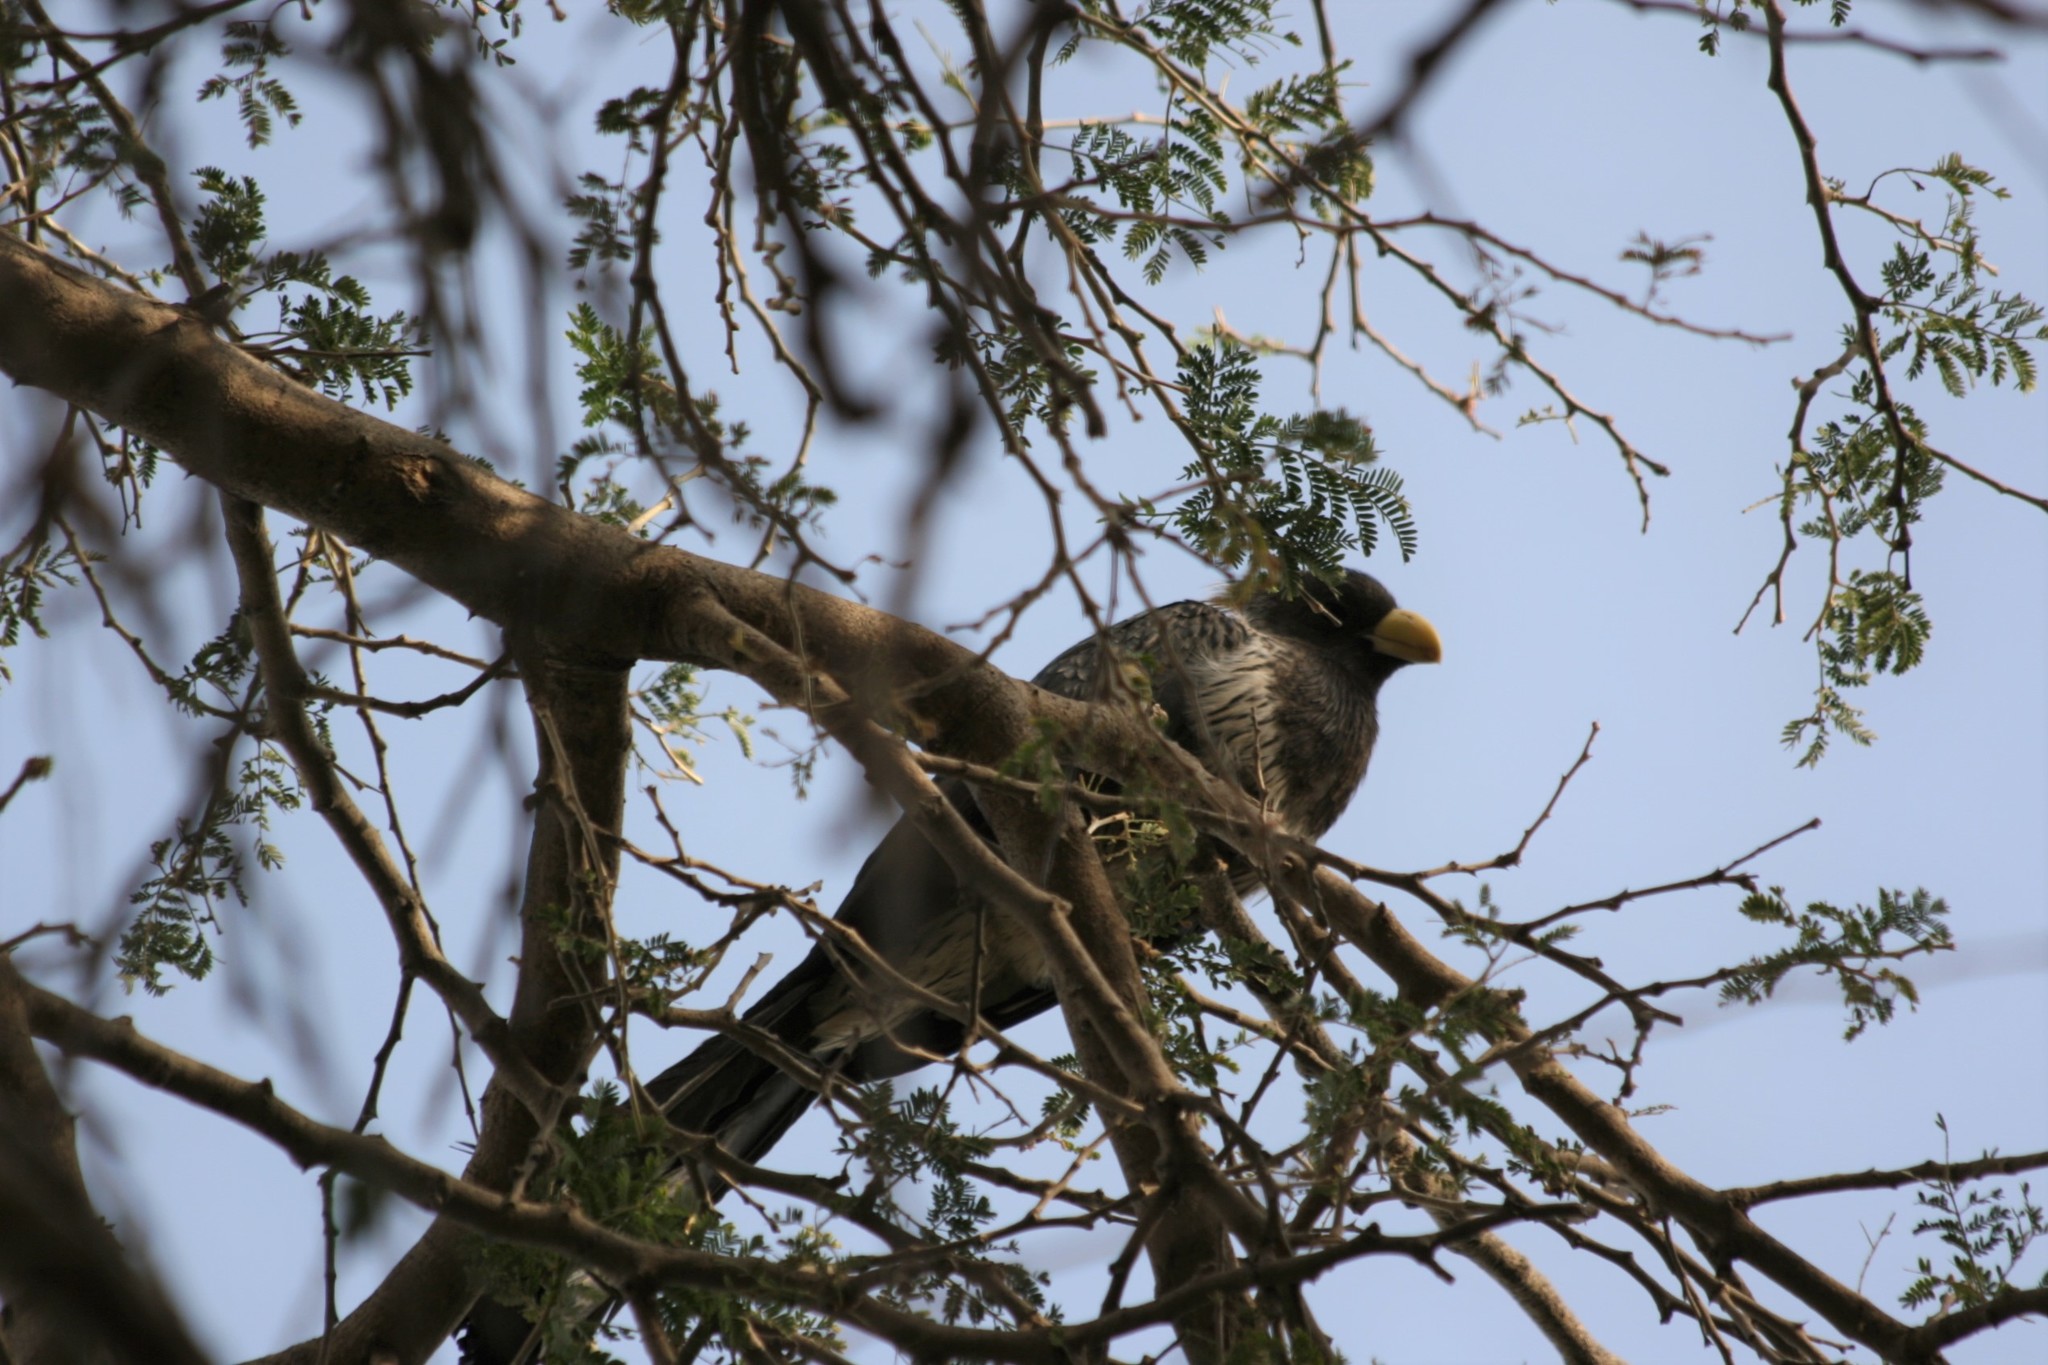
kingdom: Animalia
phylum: Chordata
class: Aves
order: Musophagiformes
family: Musophagidae
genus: Crinifer
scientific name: Crinifer piscator
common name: Western plantain-eater
